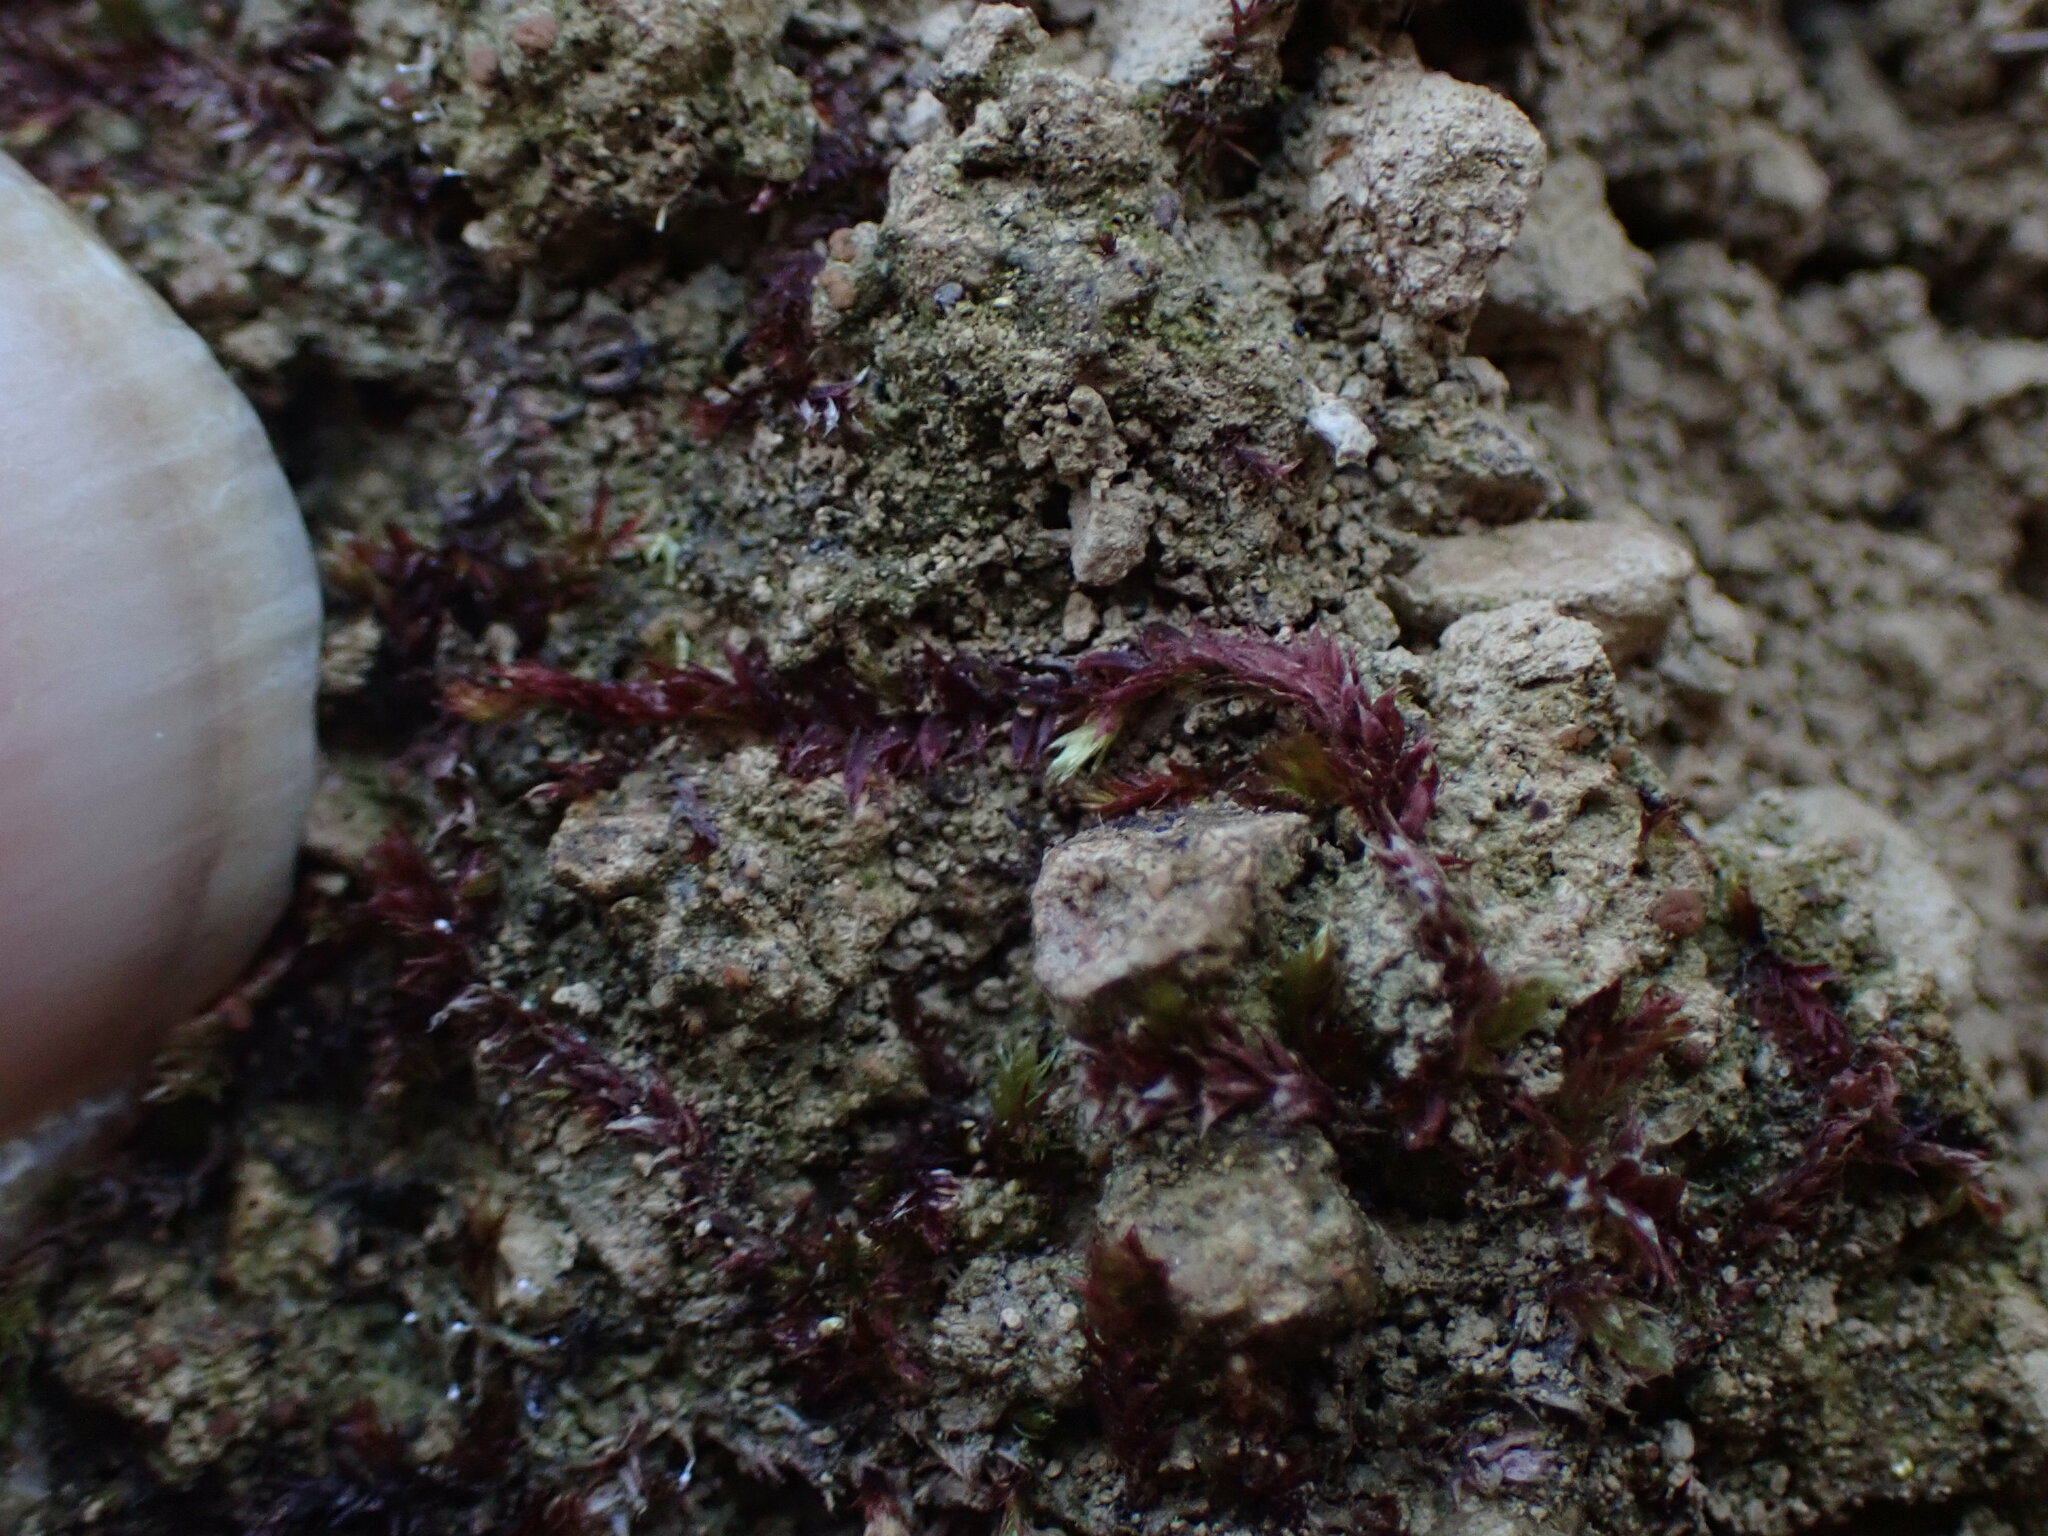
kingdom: Plantae
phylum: Bryophyta
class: Bryopsida
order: Hypnales
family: Plagiotheciaceae
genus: Pseudotaxiphyllum
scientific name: Pseudotaxiphyllum pohliaecarpum
